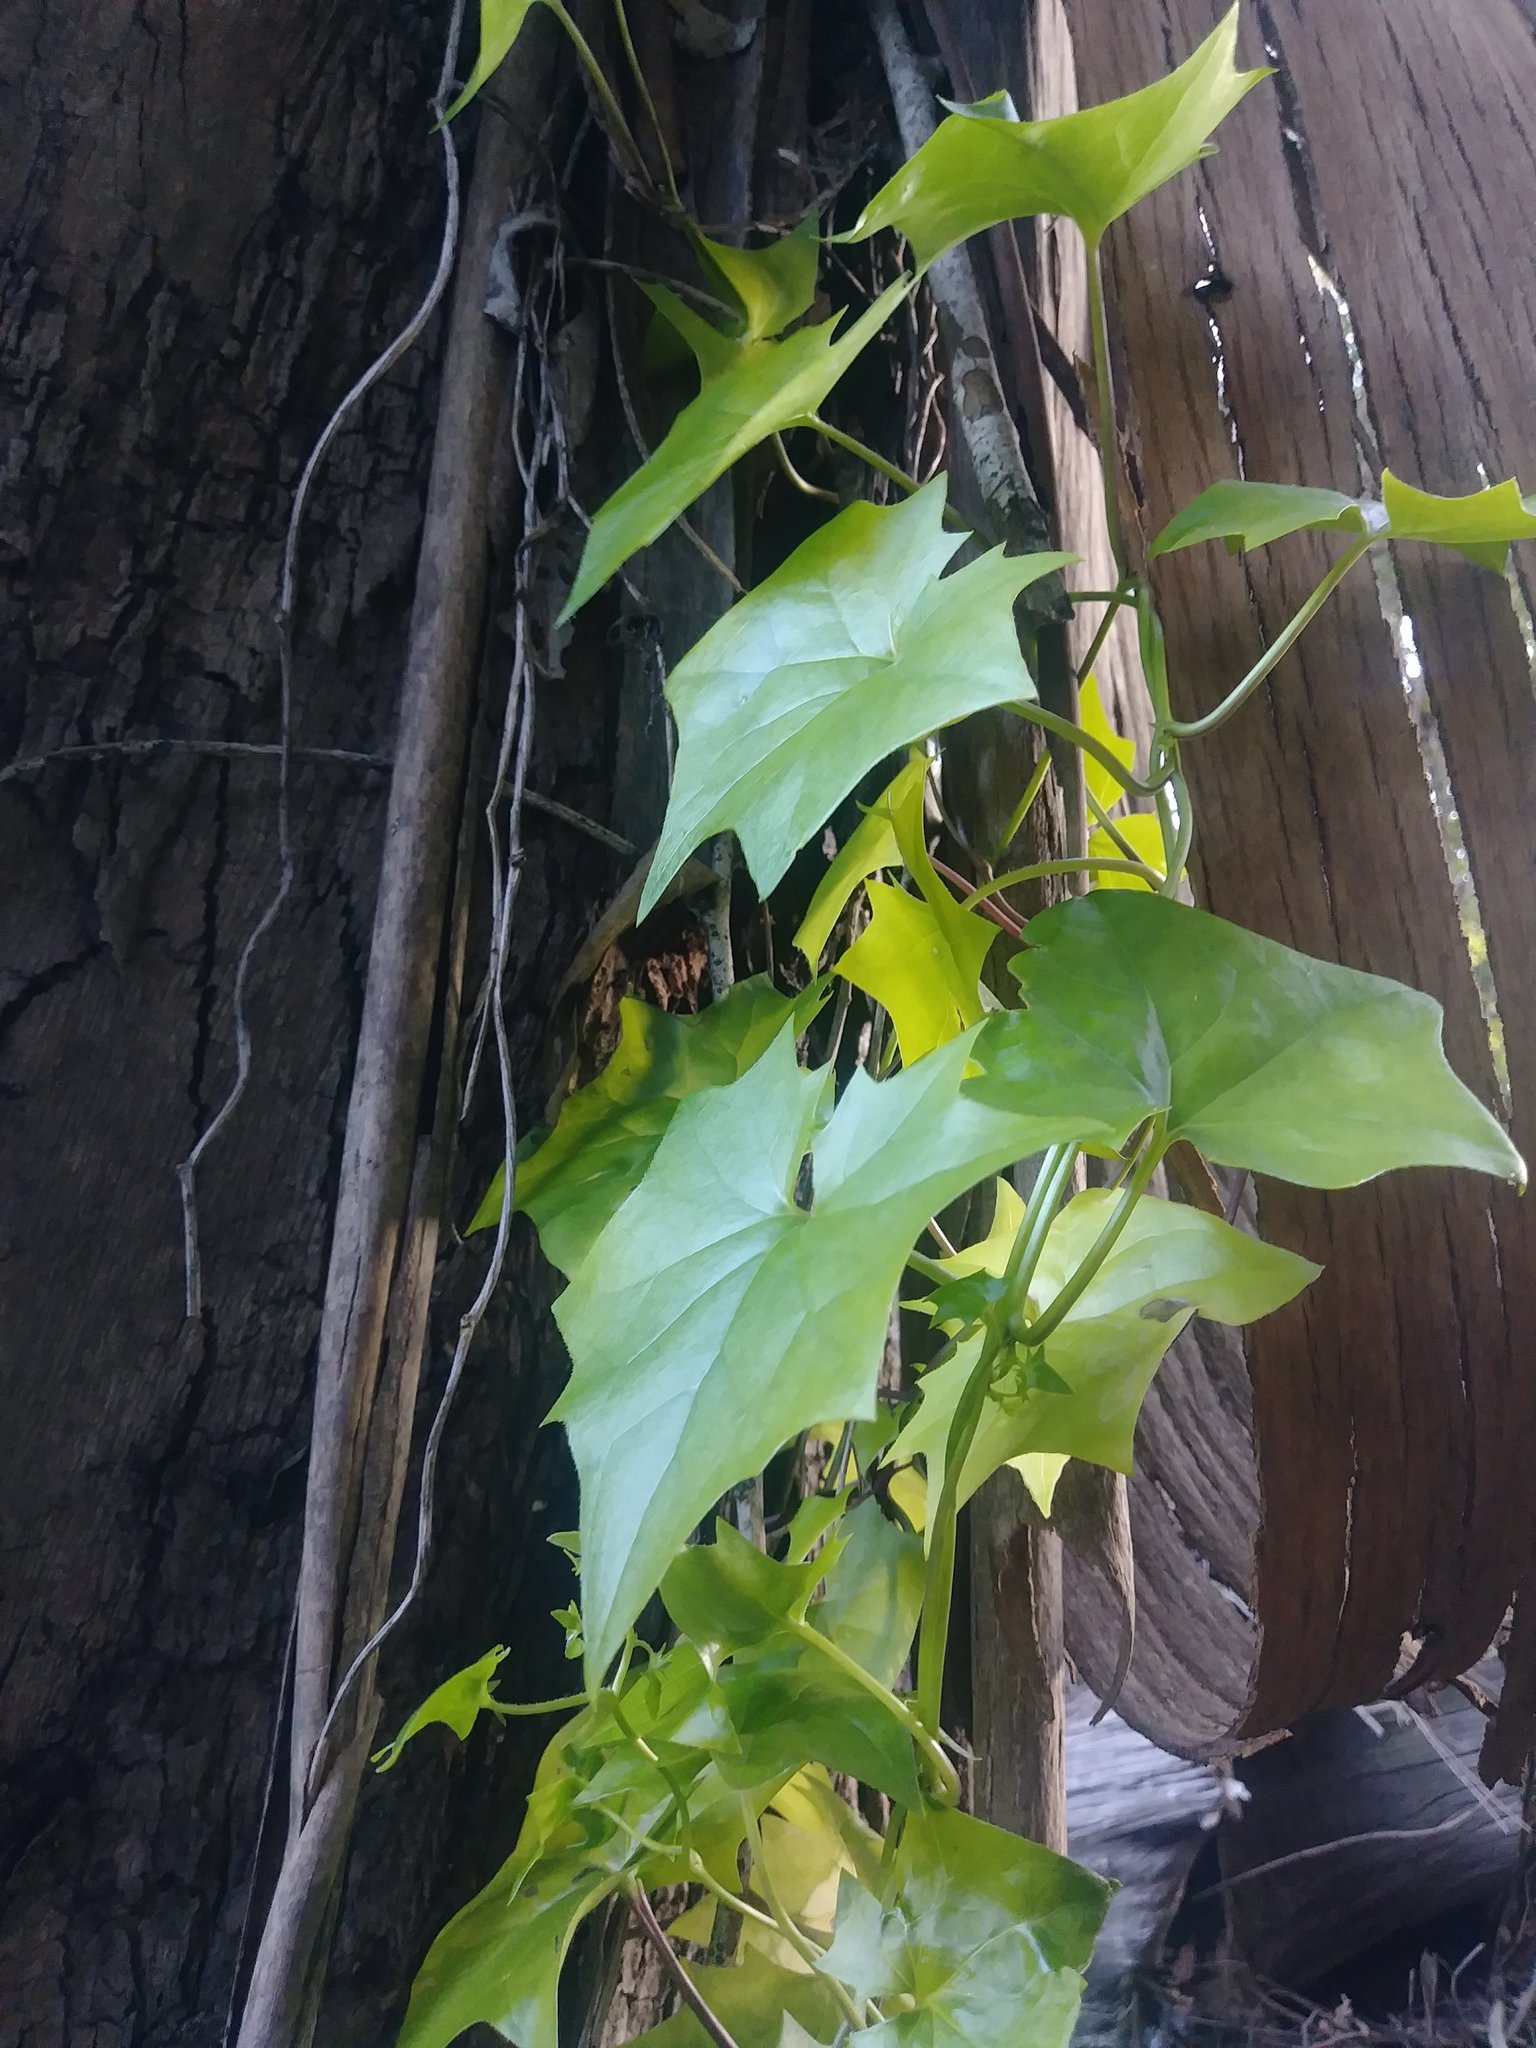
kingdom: Plantae
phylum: Tracheophyta
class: Magnoliopsida
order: Asterales
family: Asteraceae
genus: Delairea
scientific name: Delairea odorata
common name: Cape-ivy
